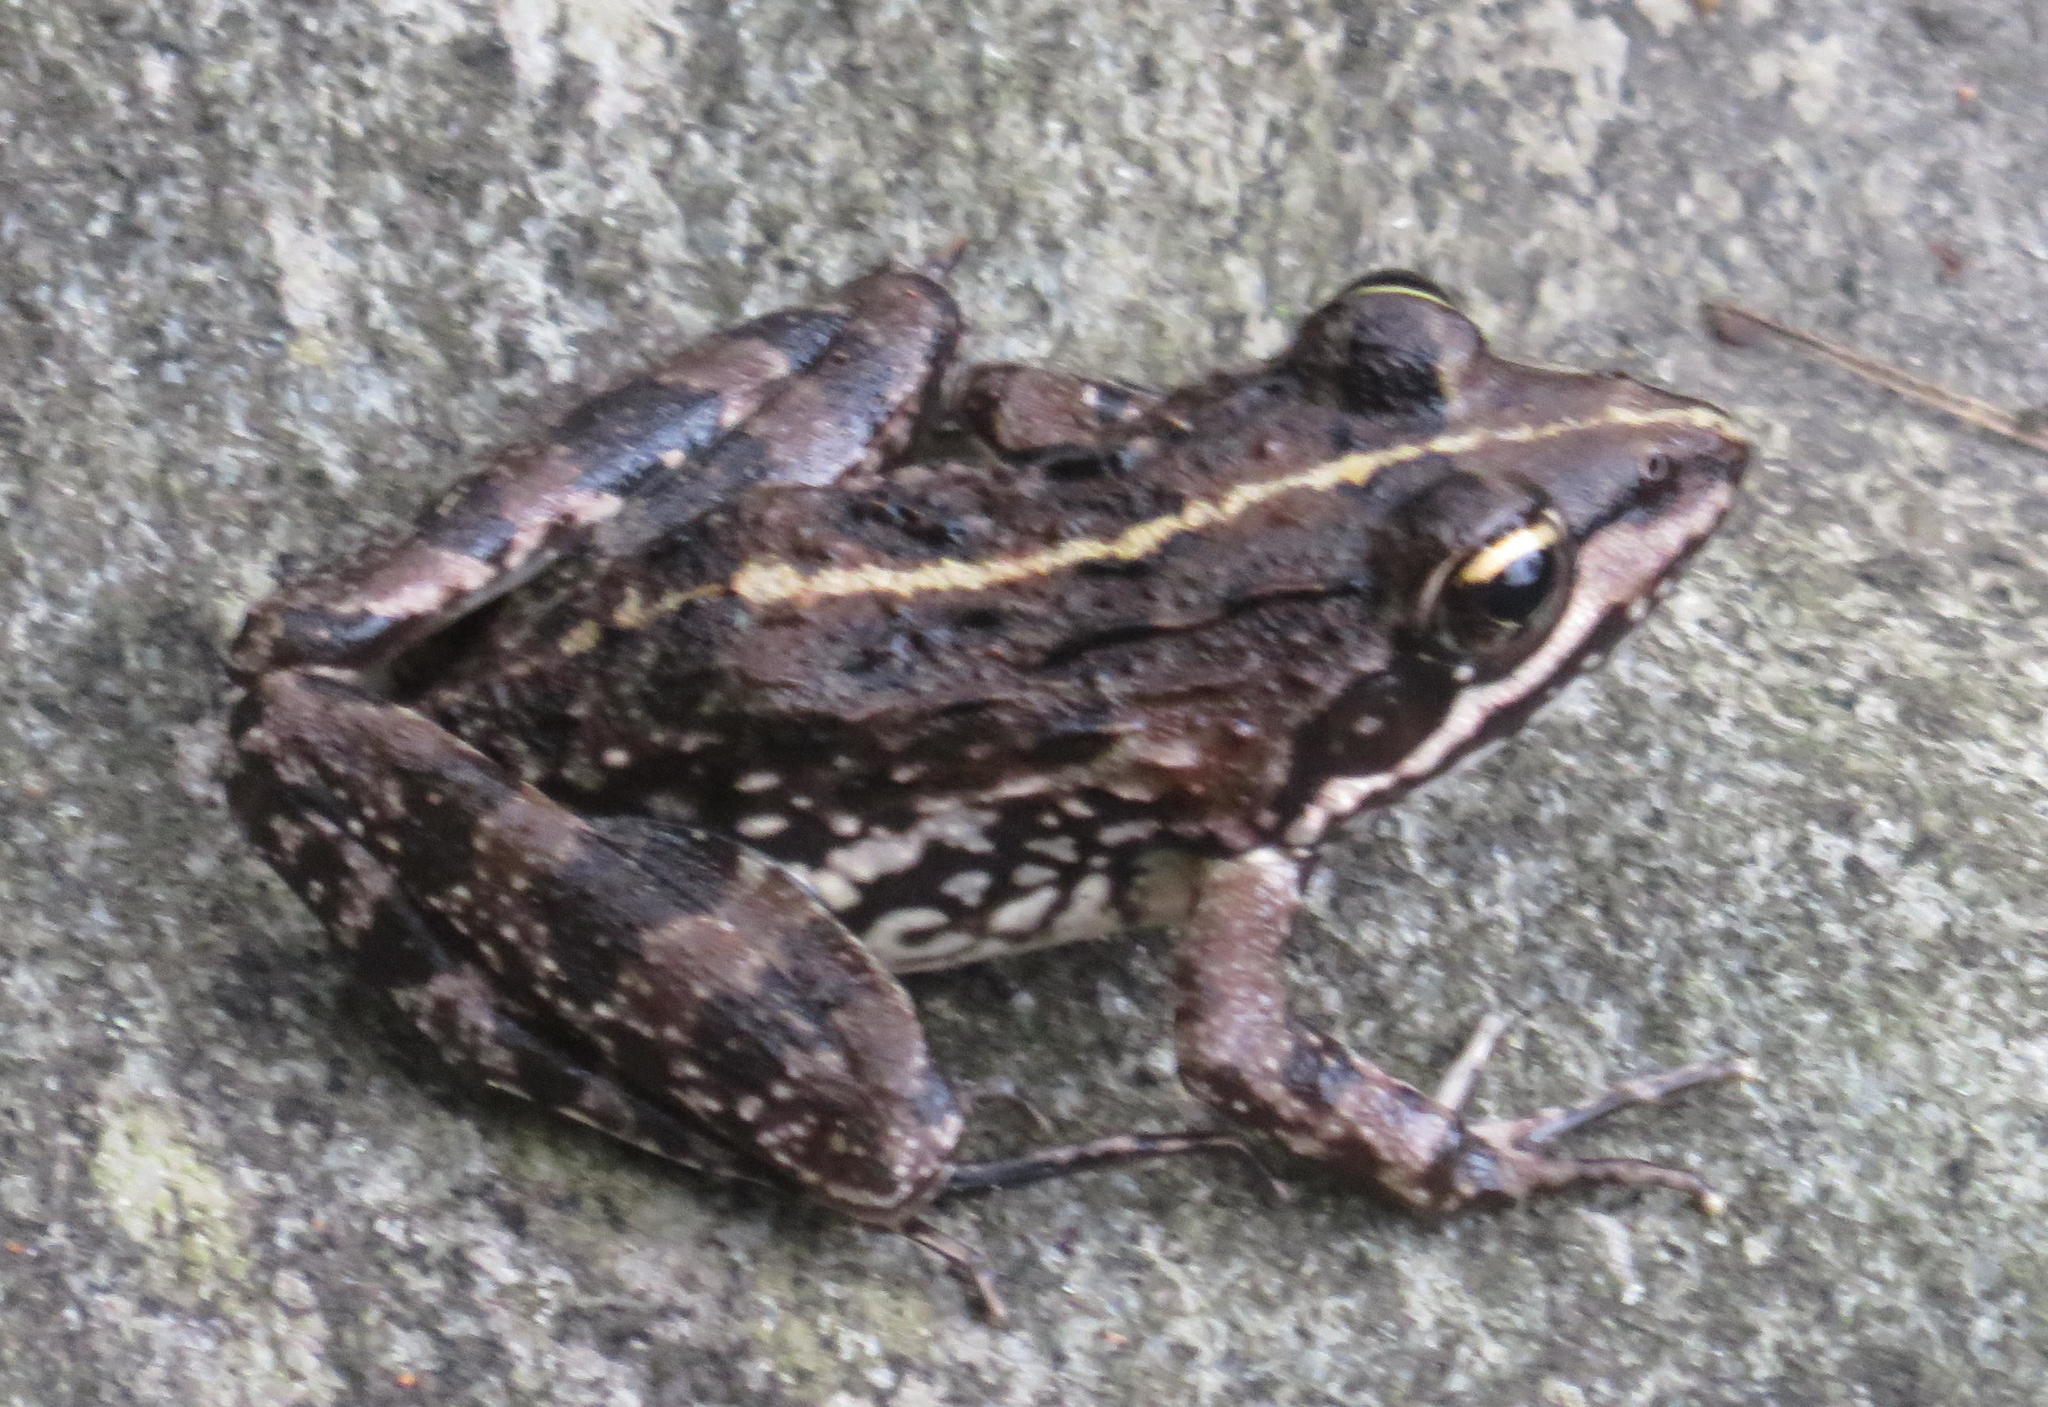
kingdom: Animalia
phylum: Chordata
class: Amphibia
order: Anura
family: Pyxicephalidae
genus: Amietia
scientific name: Amietia fuscigula
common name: Cape rana
